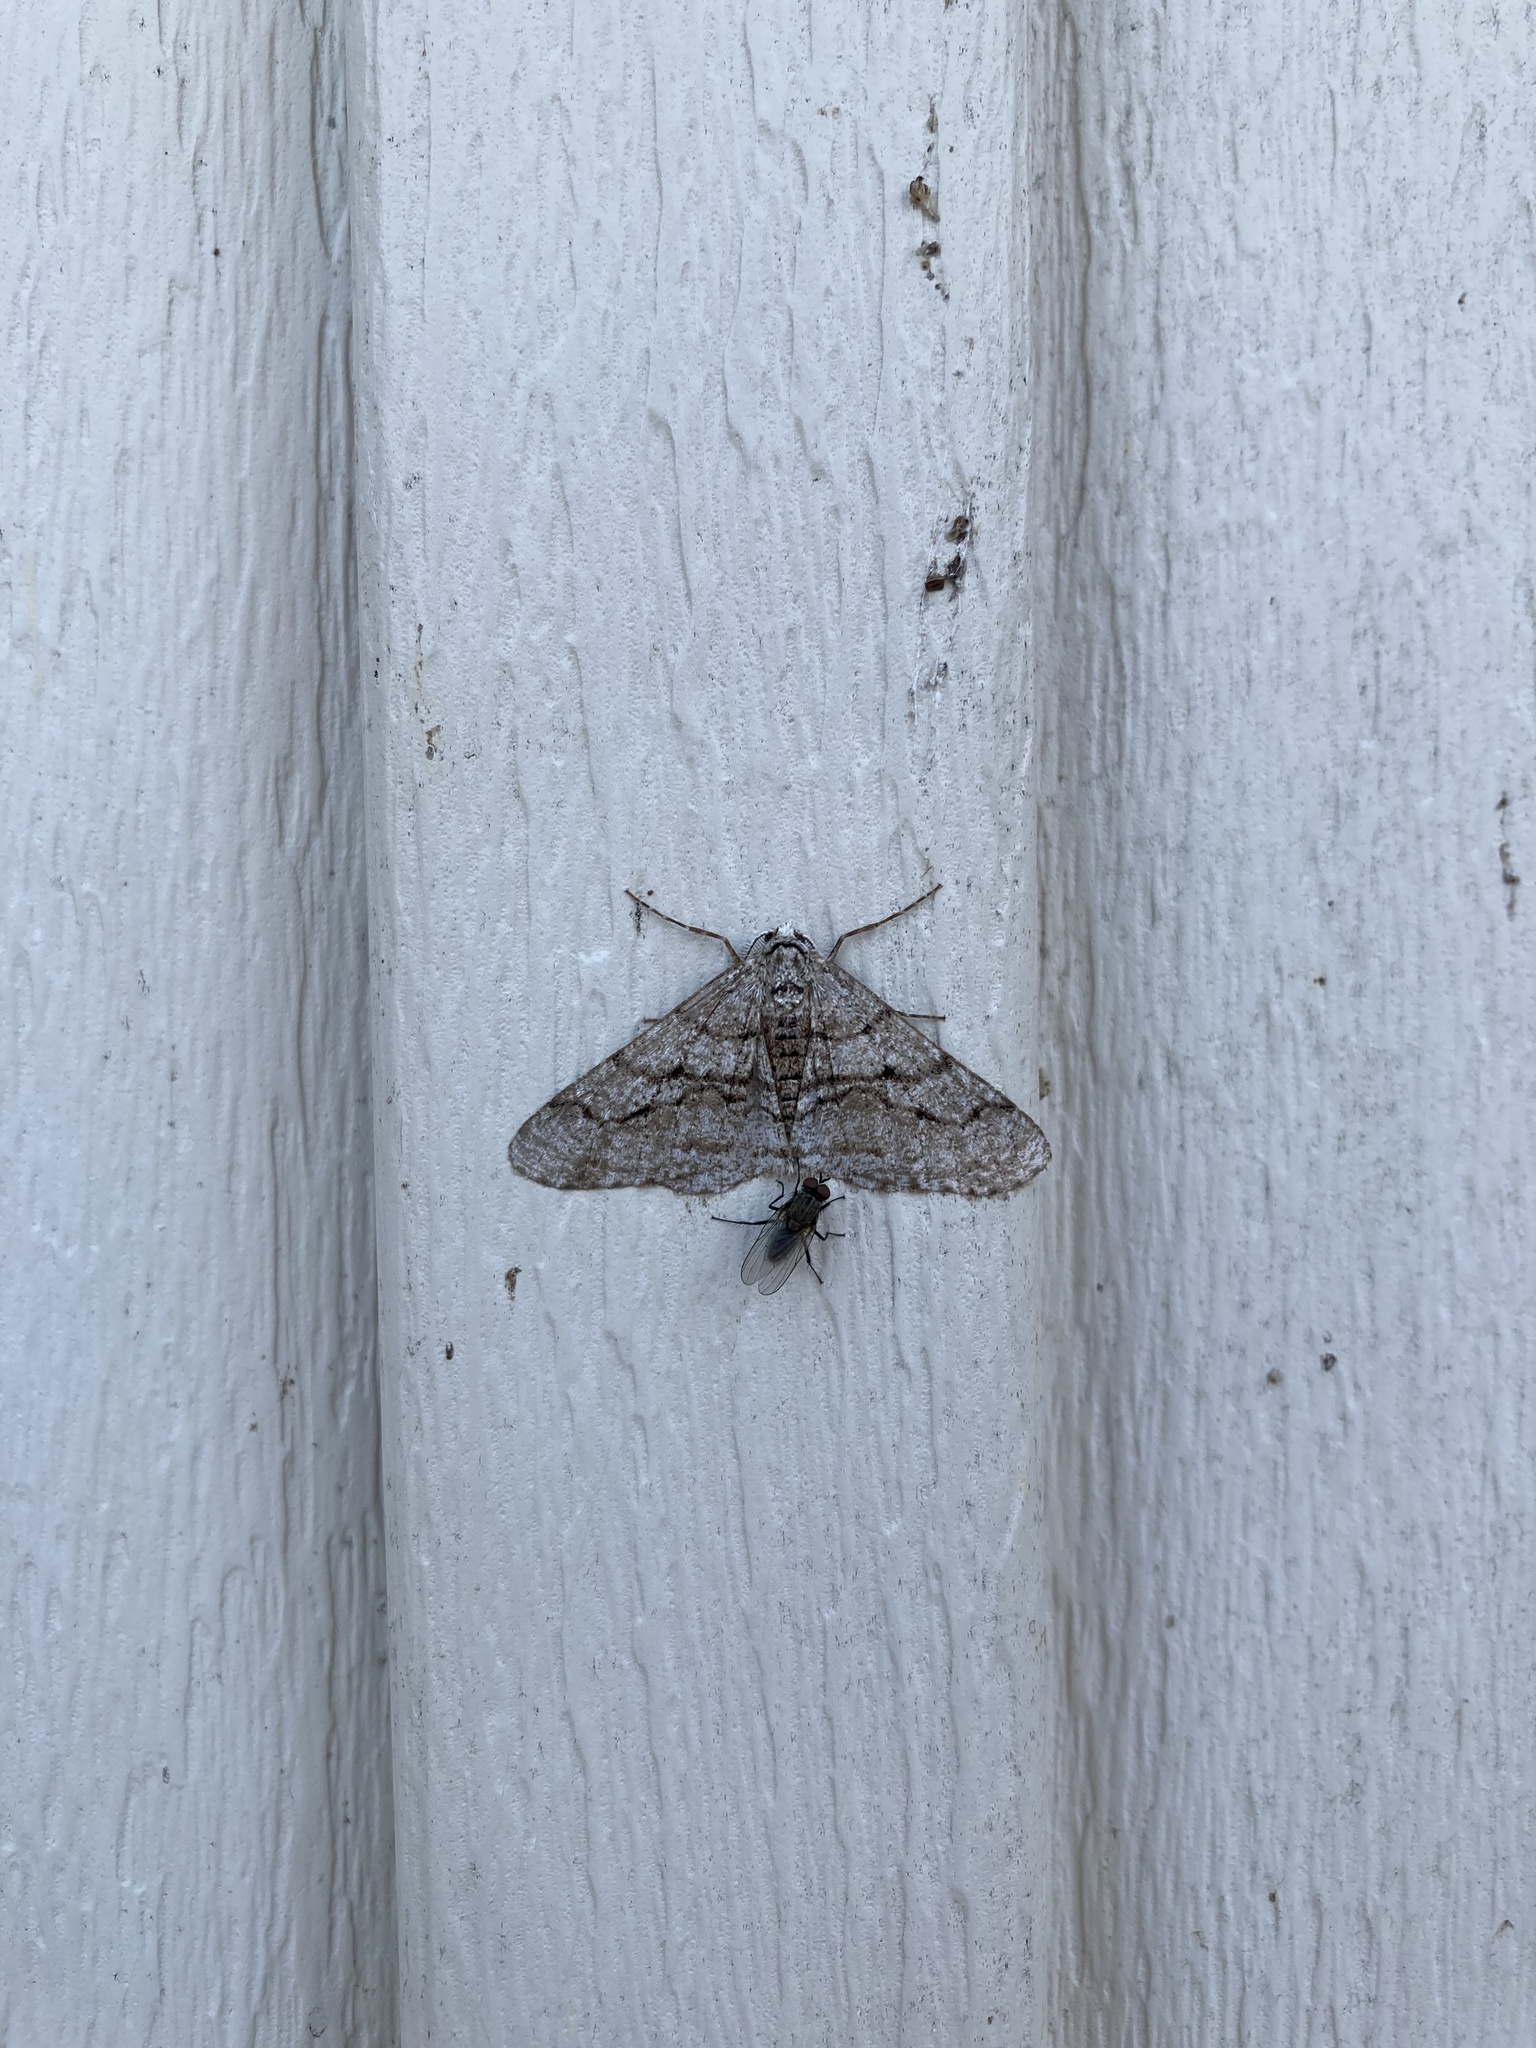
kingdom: Animalia
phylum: Arthropoda
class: Insecta
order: Lepidoptera
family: Geometridae
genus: Phigalia
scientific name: Phigalia titea
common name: Spiny looper
